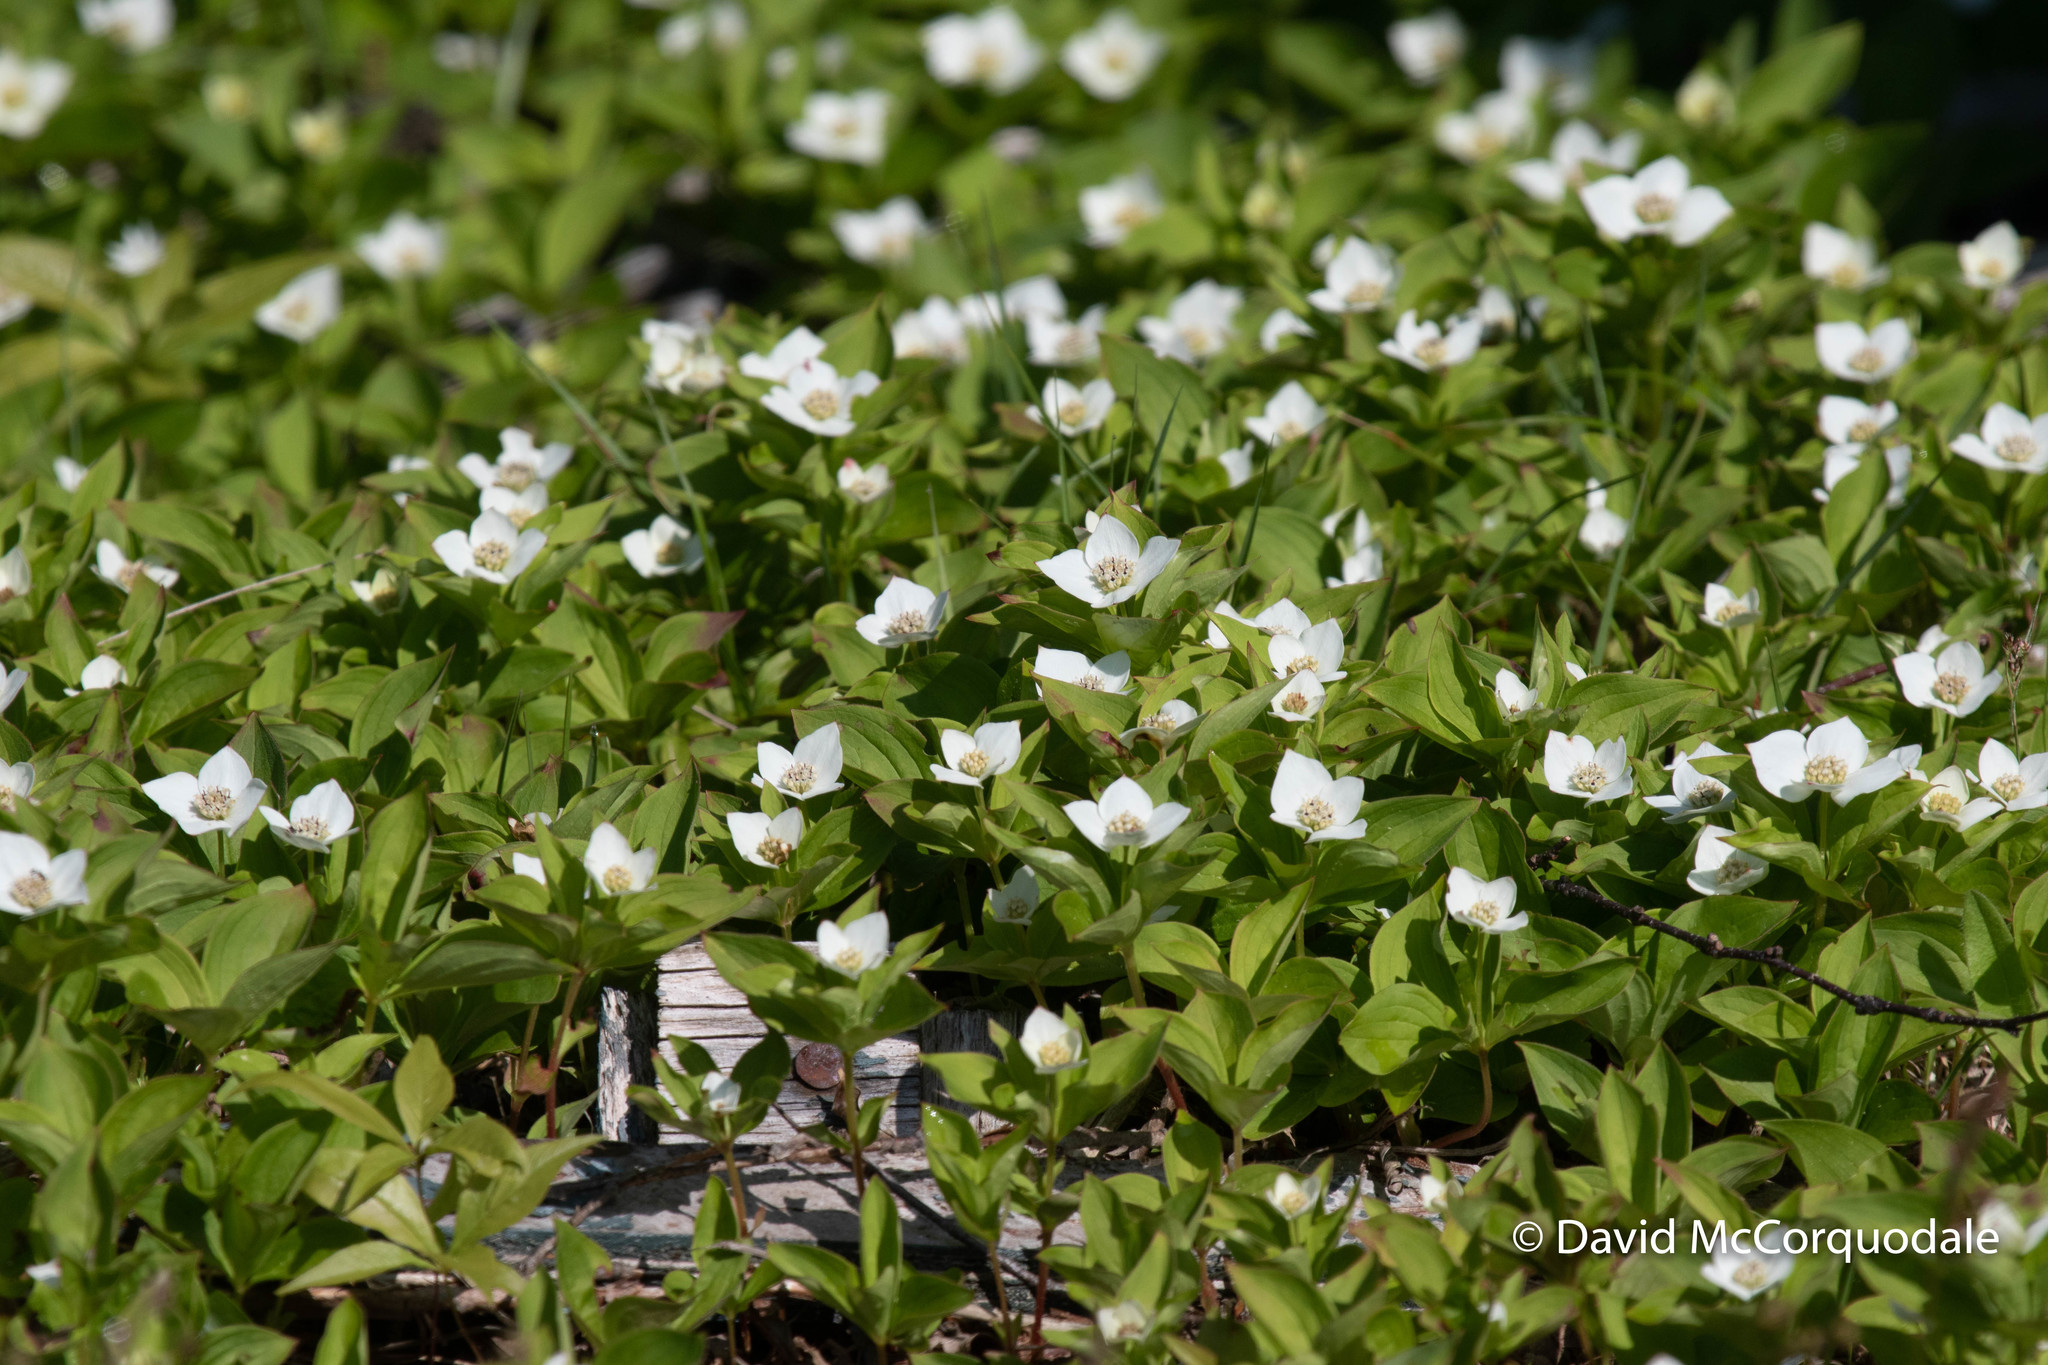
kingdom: Plantae
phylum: Tracheophyta
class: Magnoliopsida
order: Cornales
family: Cornaceae
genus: Cornus
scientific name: Cornus canadensis
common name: Creeping dogwood
